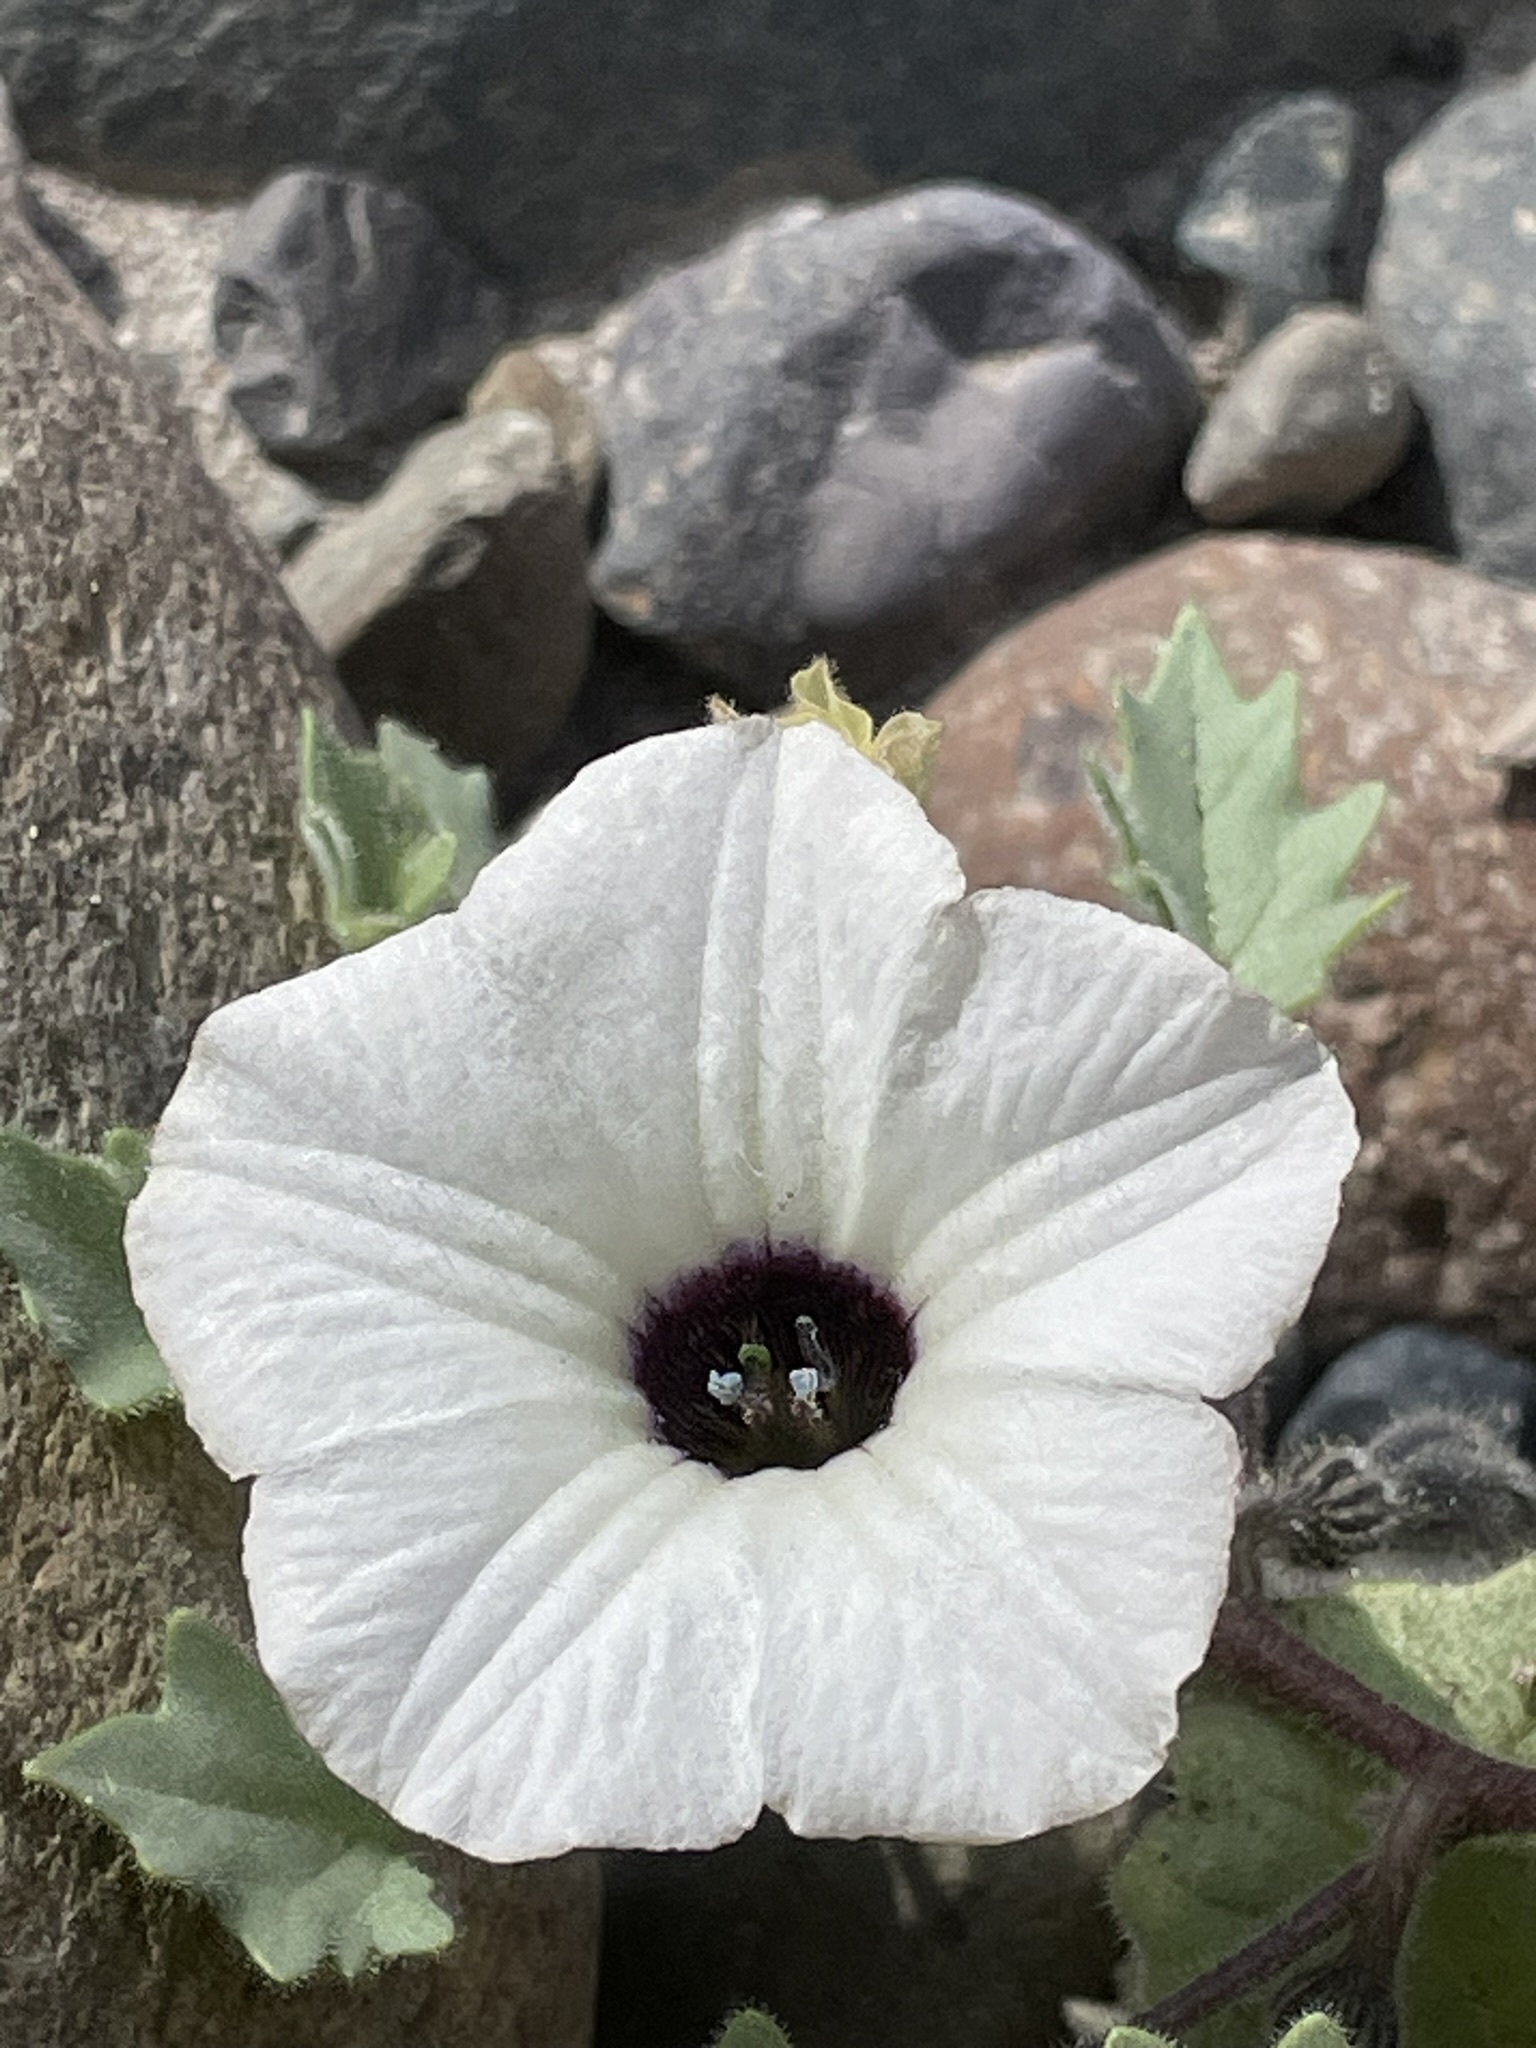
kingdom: Plantae
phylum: Tracheophyta
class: Magnoliopsida
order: Solanales
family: Solanaceae
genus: Exodeconus
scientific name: Exodeconus maritima
